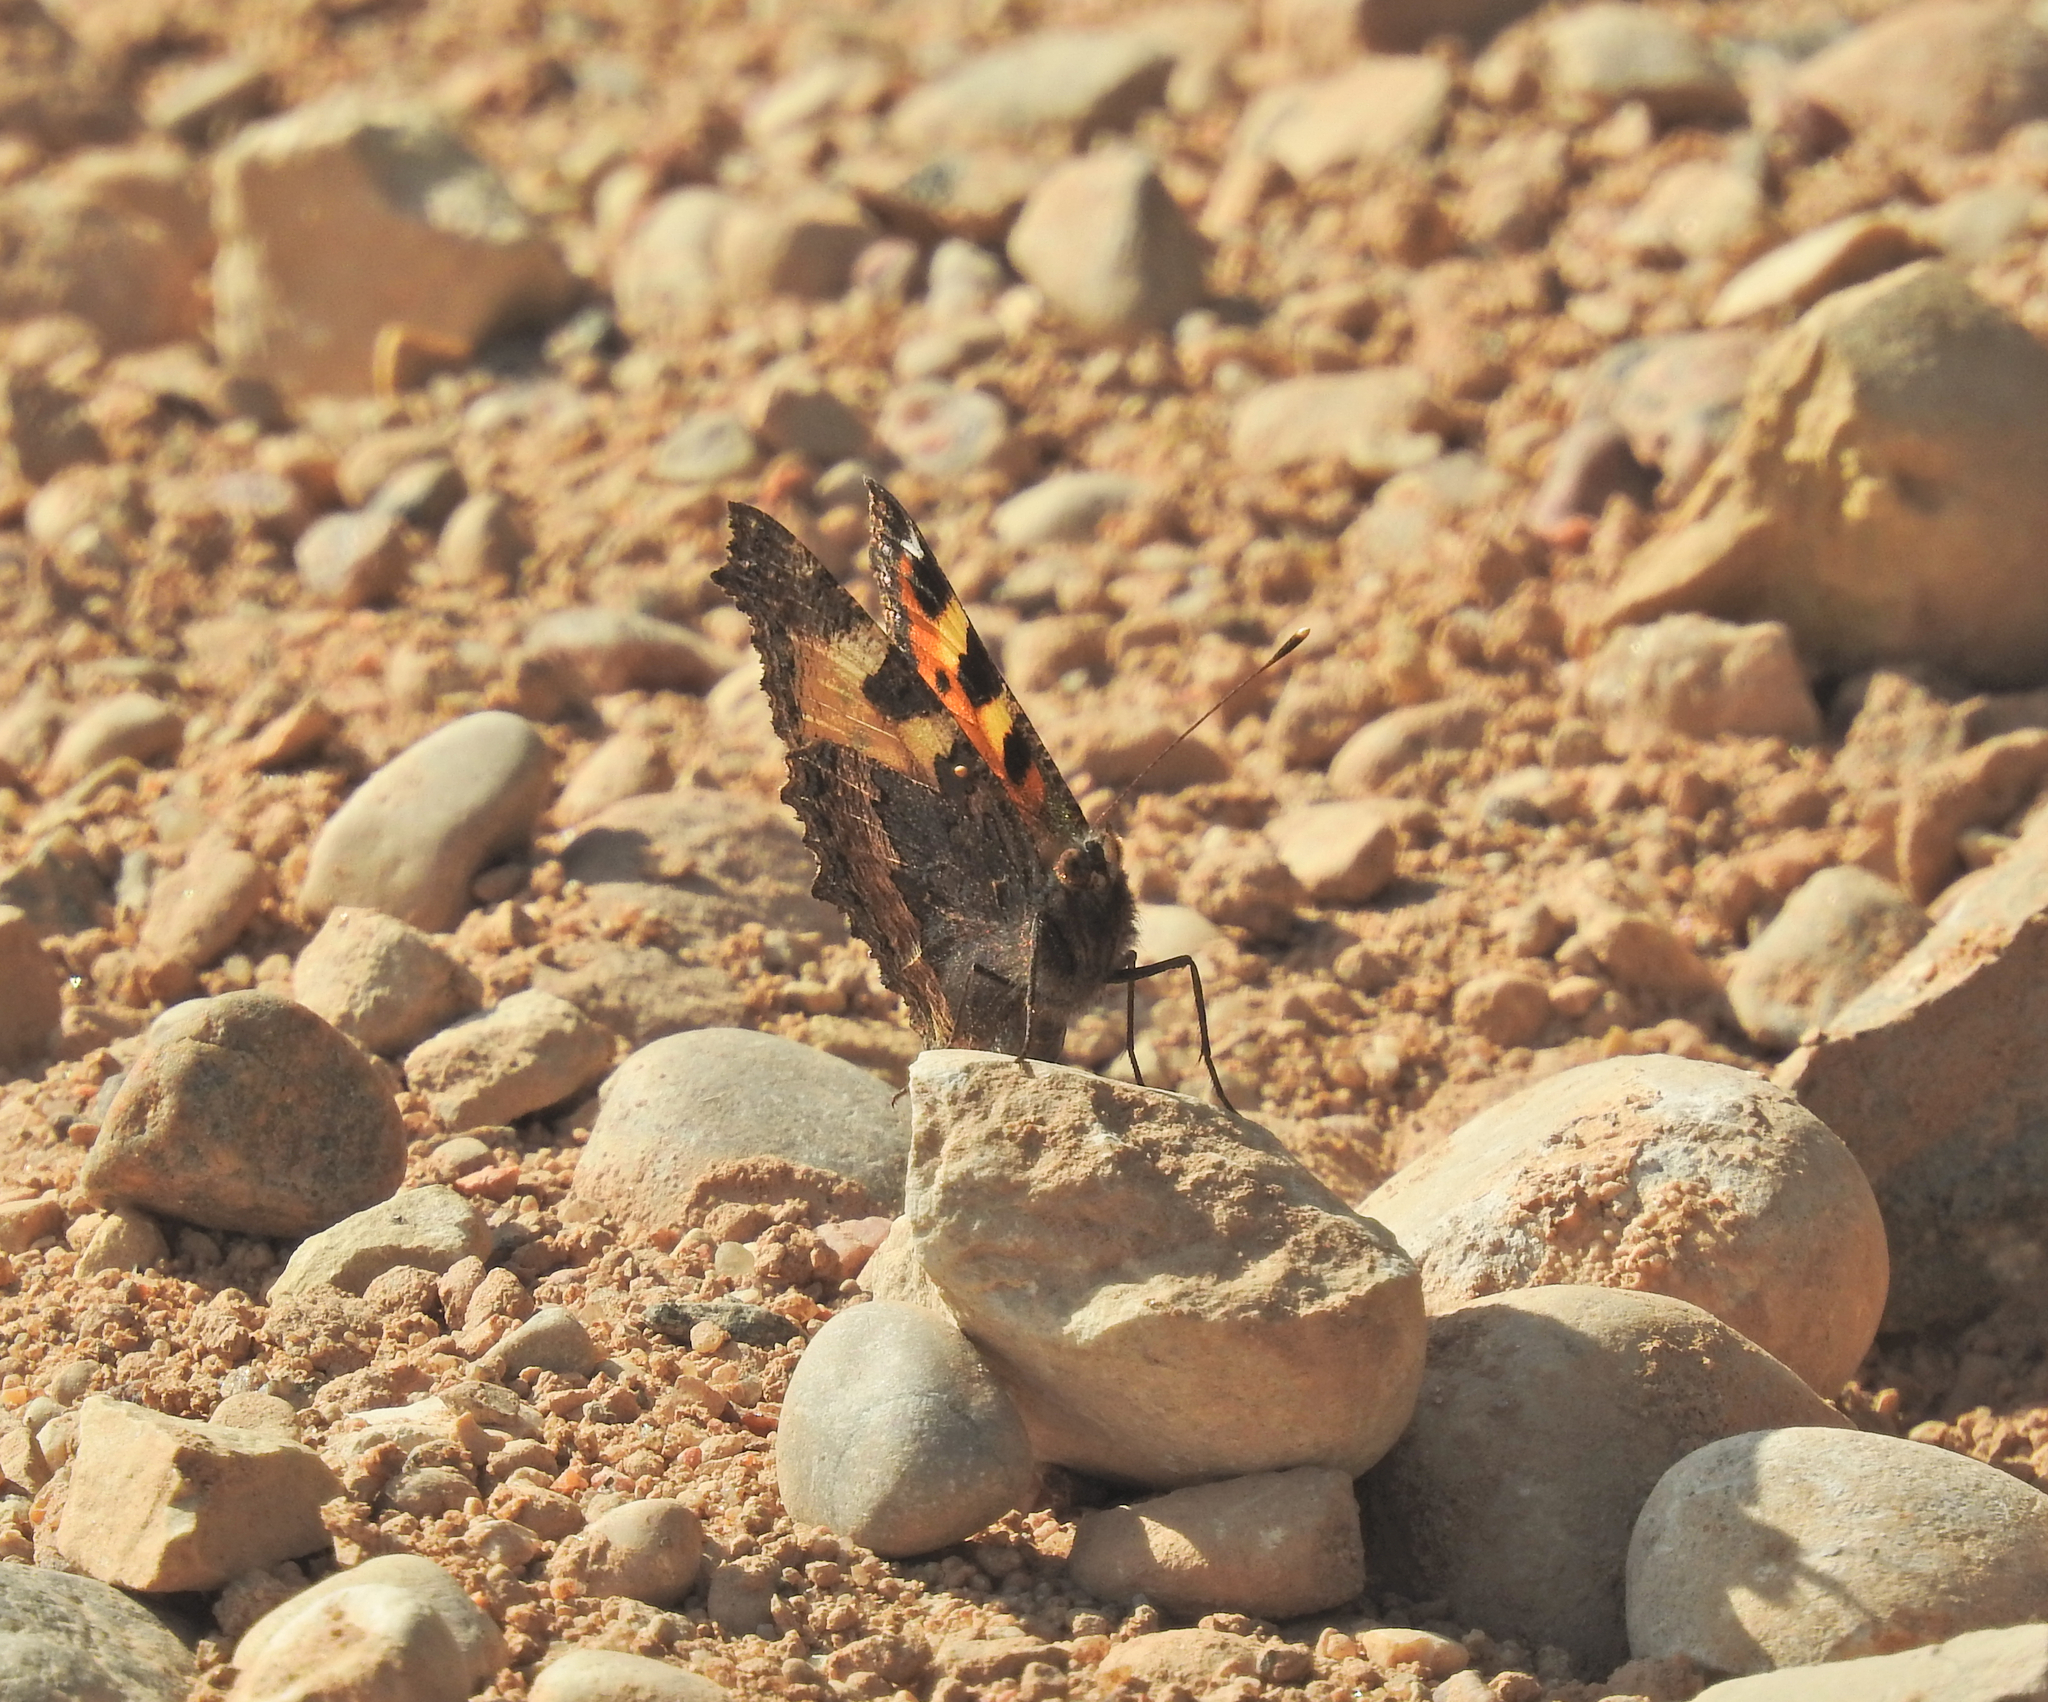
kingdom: Animalia
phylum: Arthropoda
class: Insecta
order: Lepidoptera
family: Nymphalidae
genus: Aglais
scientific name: Aglais urticae
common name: Small tortoiseshell
